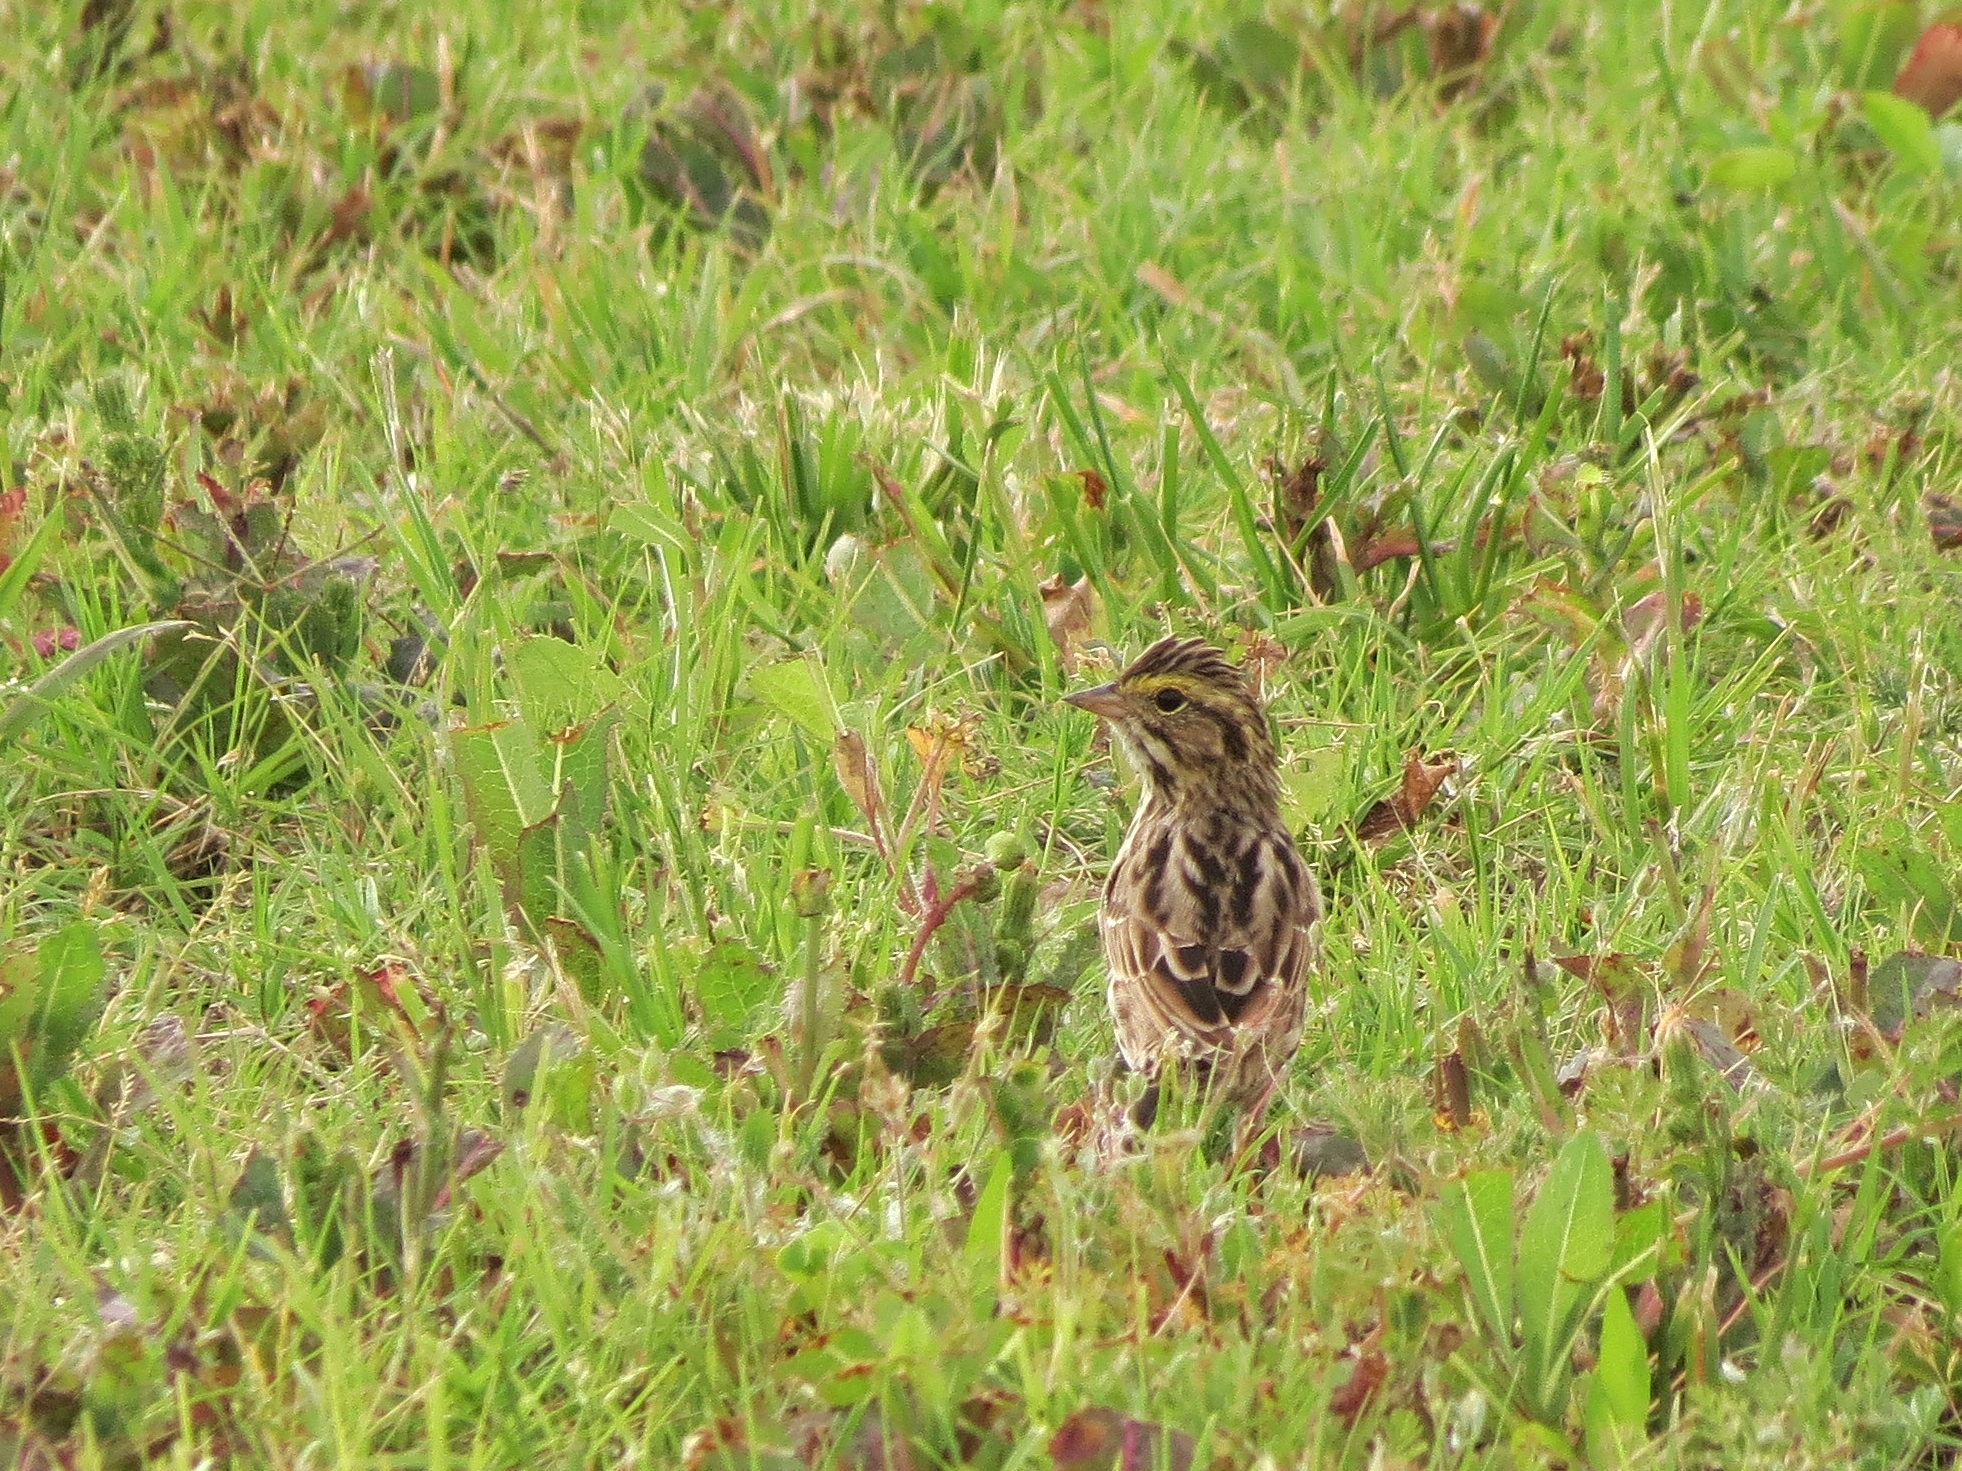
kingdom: Animalia
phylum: Chordata
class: Aves
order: Passeriformes
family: Passerellidae
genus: Passerculus
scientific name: Passerculus sandwichensis
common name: Savannah sparrow
